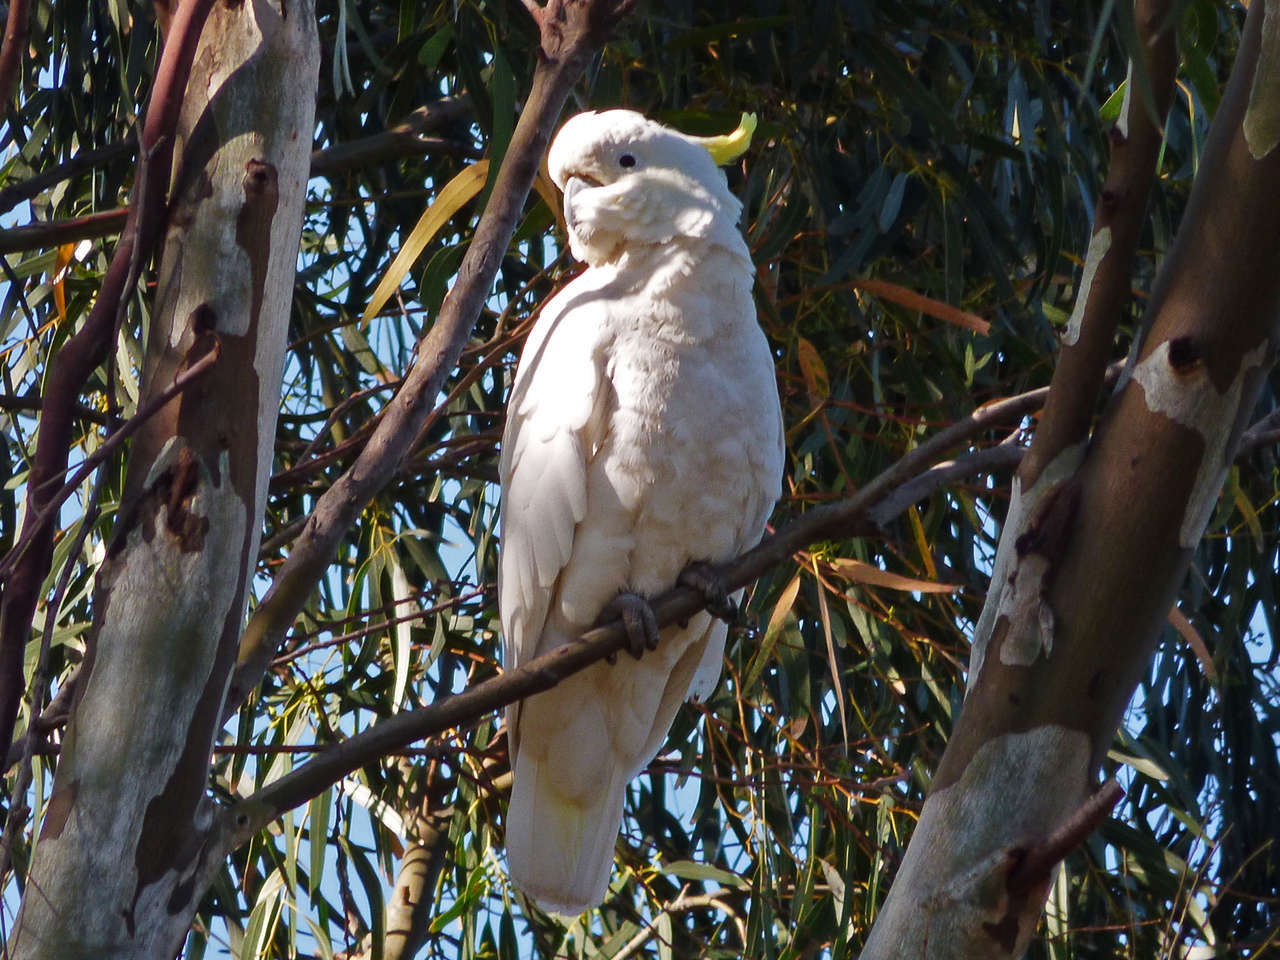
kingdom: Animalia
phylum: Chordata
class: Aves
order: Psittaciformes
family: Psittacidae
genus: Cacatua
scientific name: Cacatua galerita
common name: Sulphur-crested cockatoo
